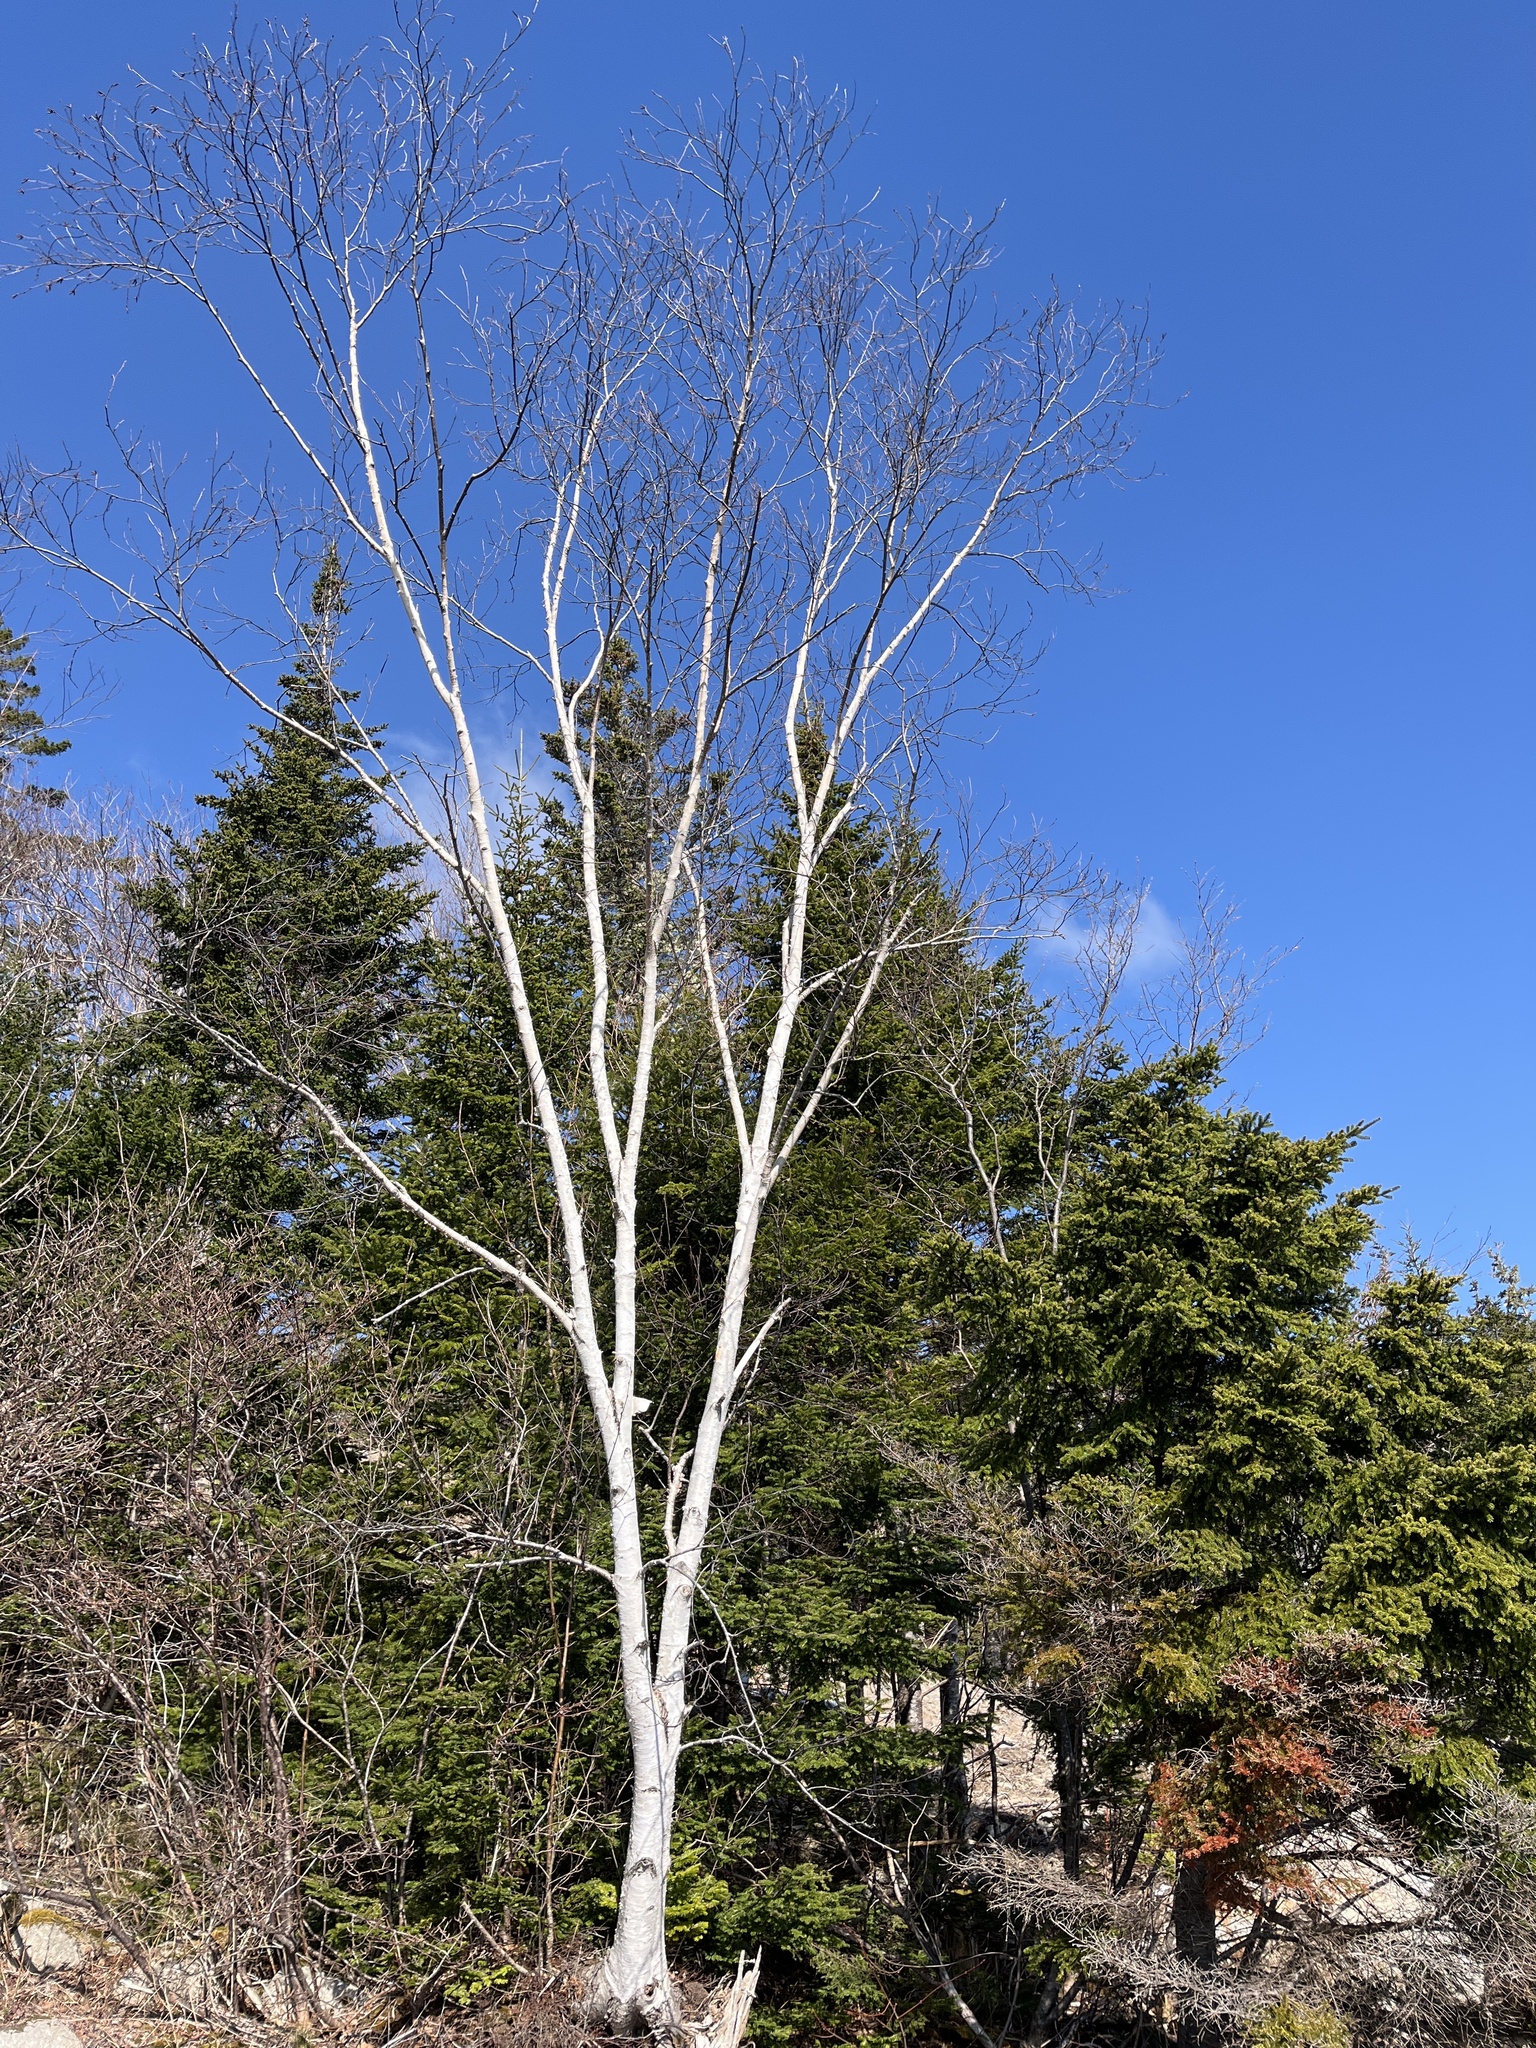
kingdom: Plantae
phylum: Tracheophyta
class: Magnoliopsida
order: Fagales
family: Betulaceae
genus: Betula
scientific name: Betula papyrifera
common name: Paper birch
